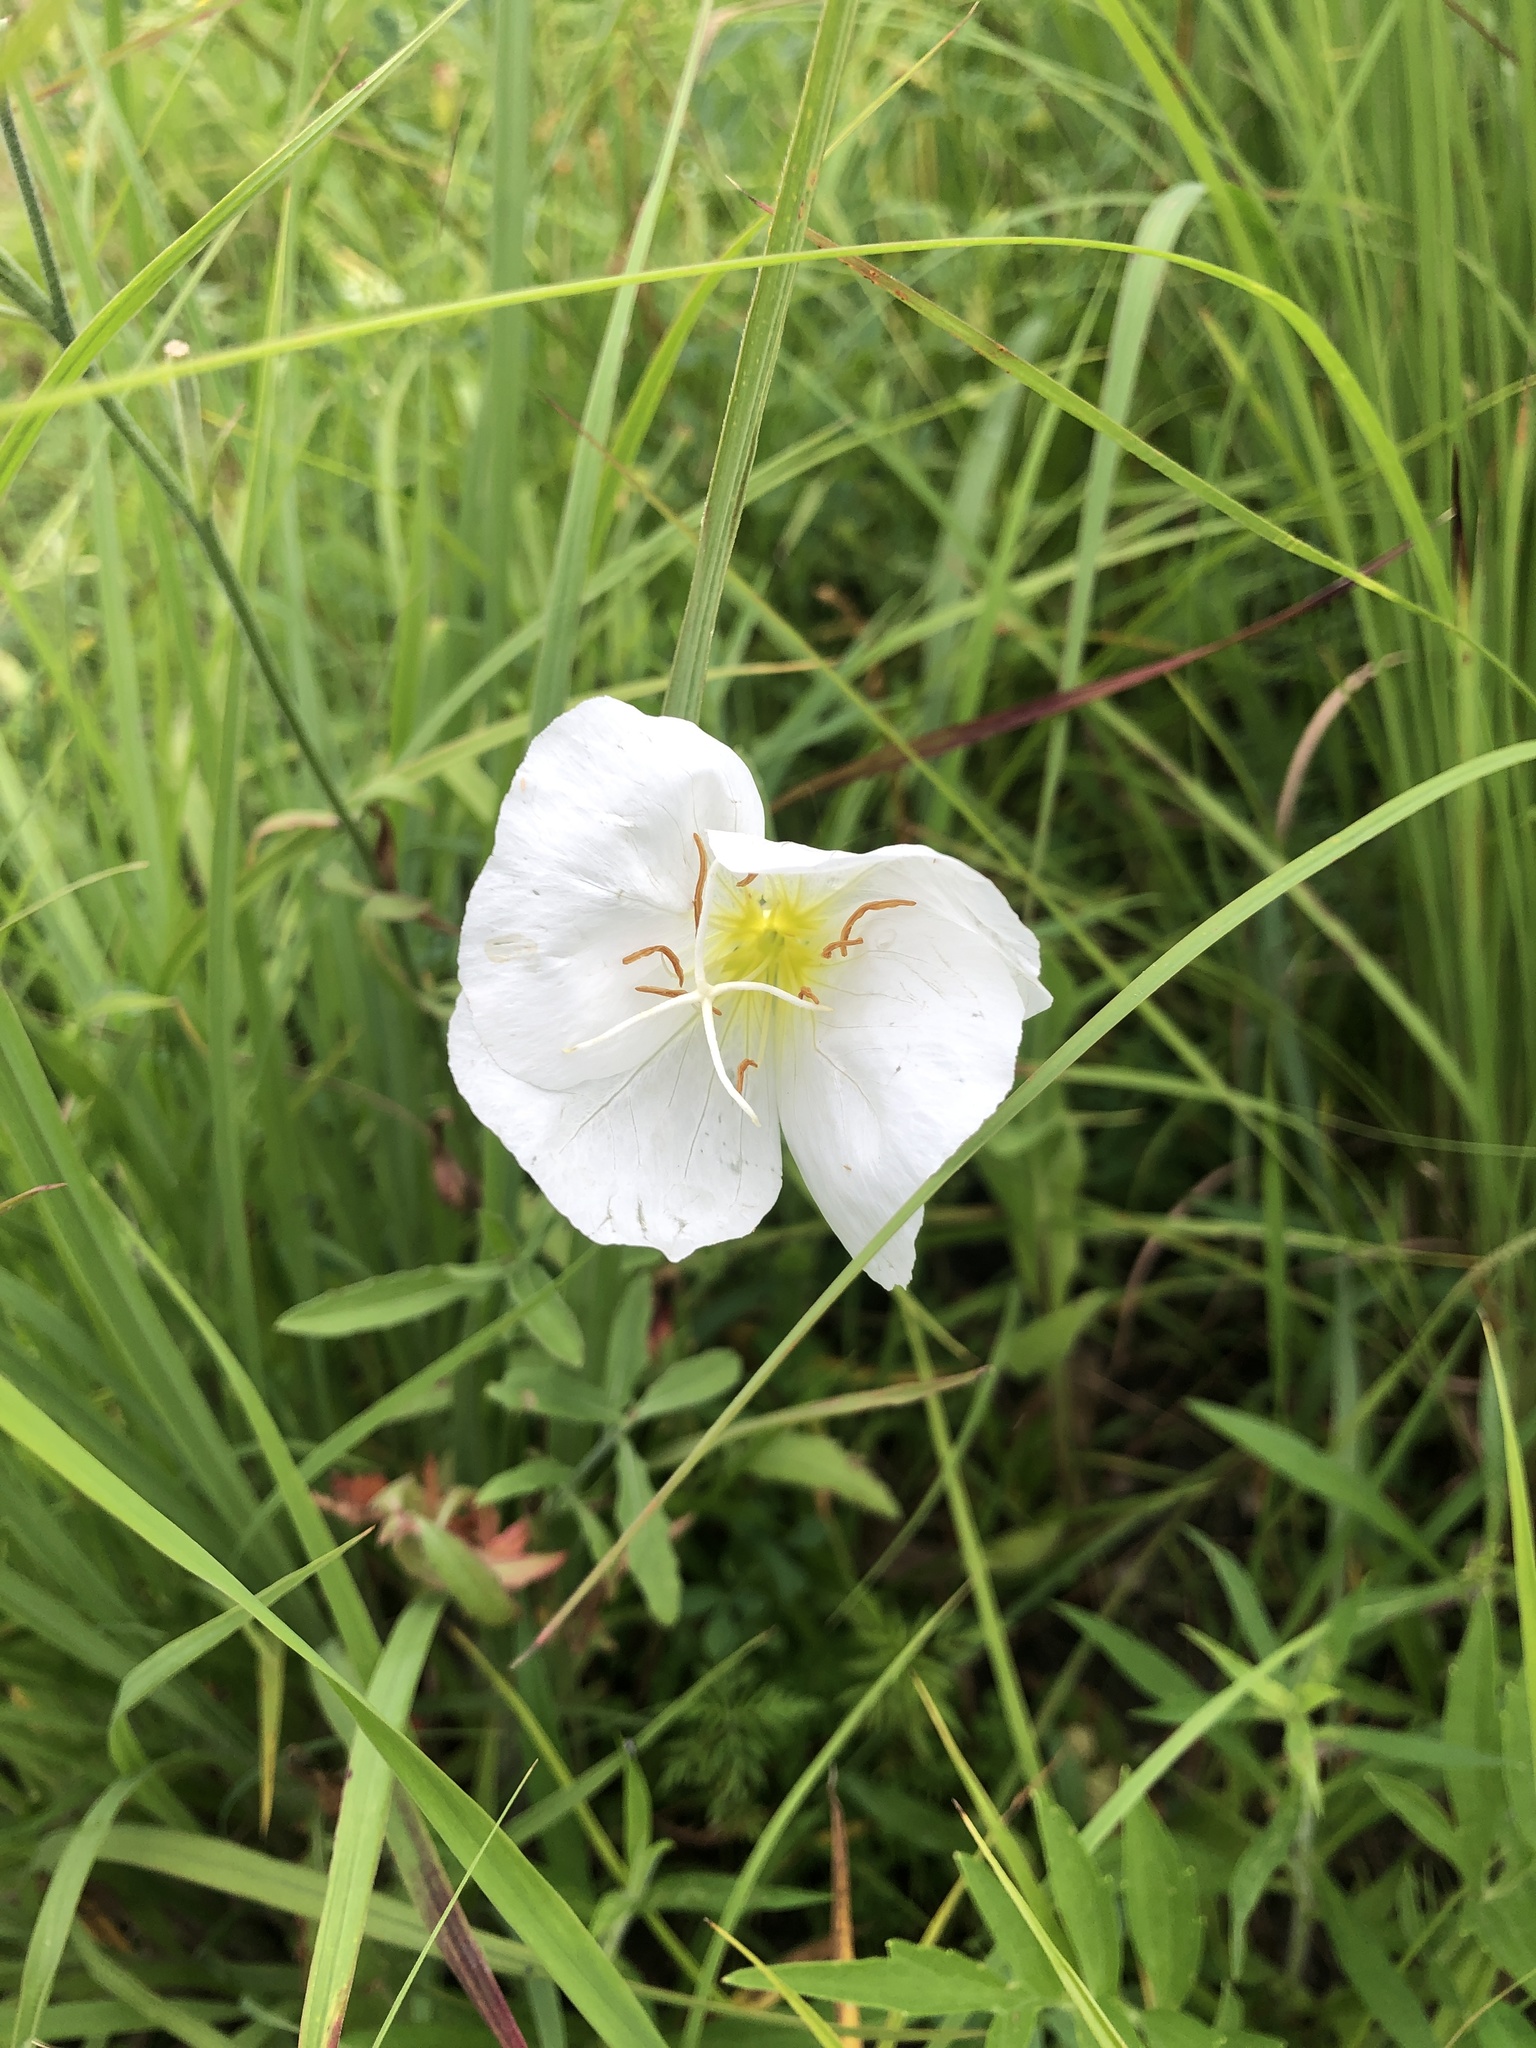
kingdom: Plantae
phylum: Tracheophyta
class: Magnoliopsida
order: Myrtales
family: Onagraceae
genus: Oenothera
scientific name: Oenothera speciosa
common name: White evening-primrose
